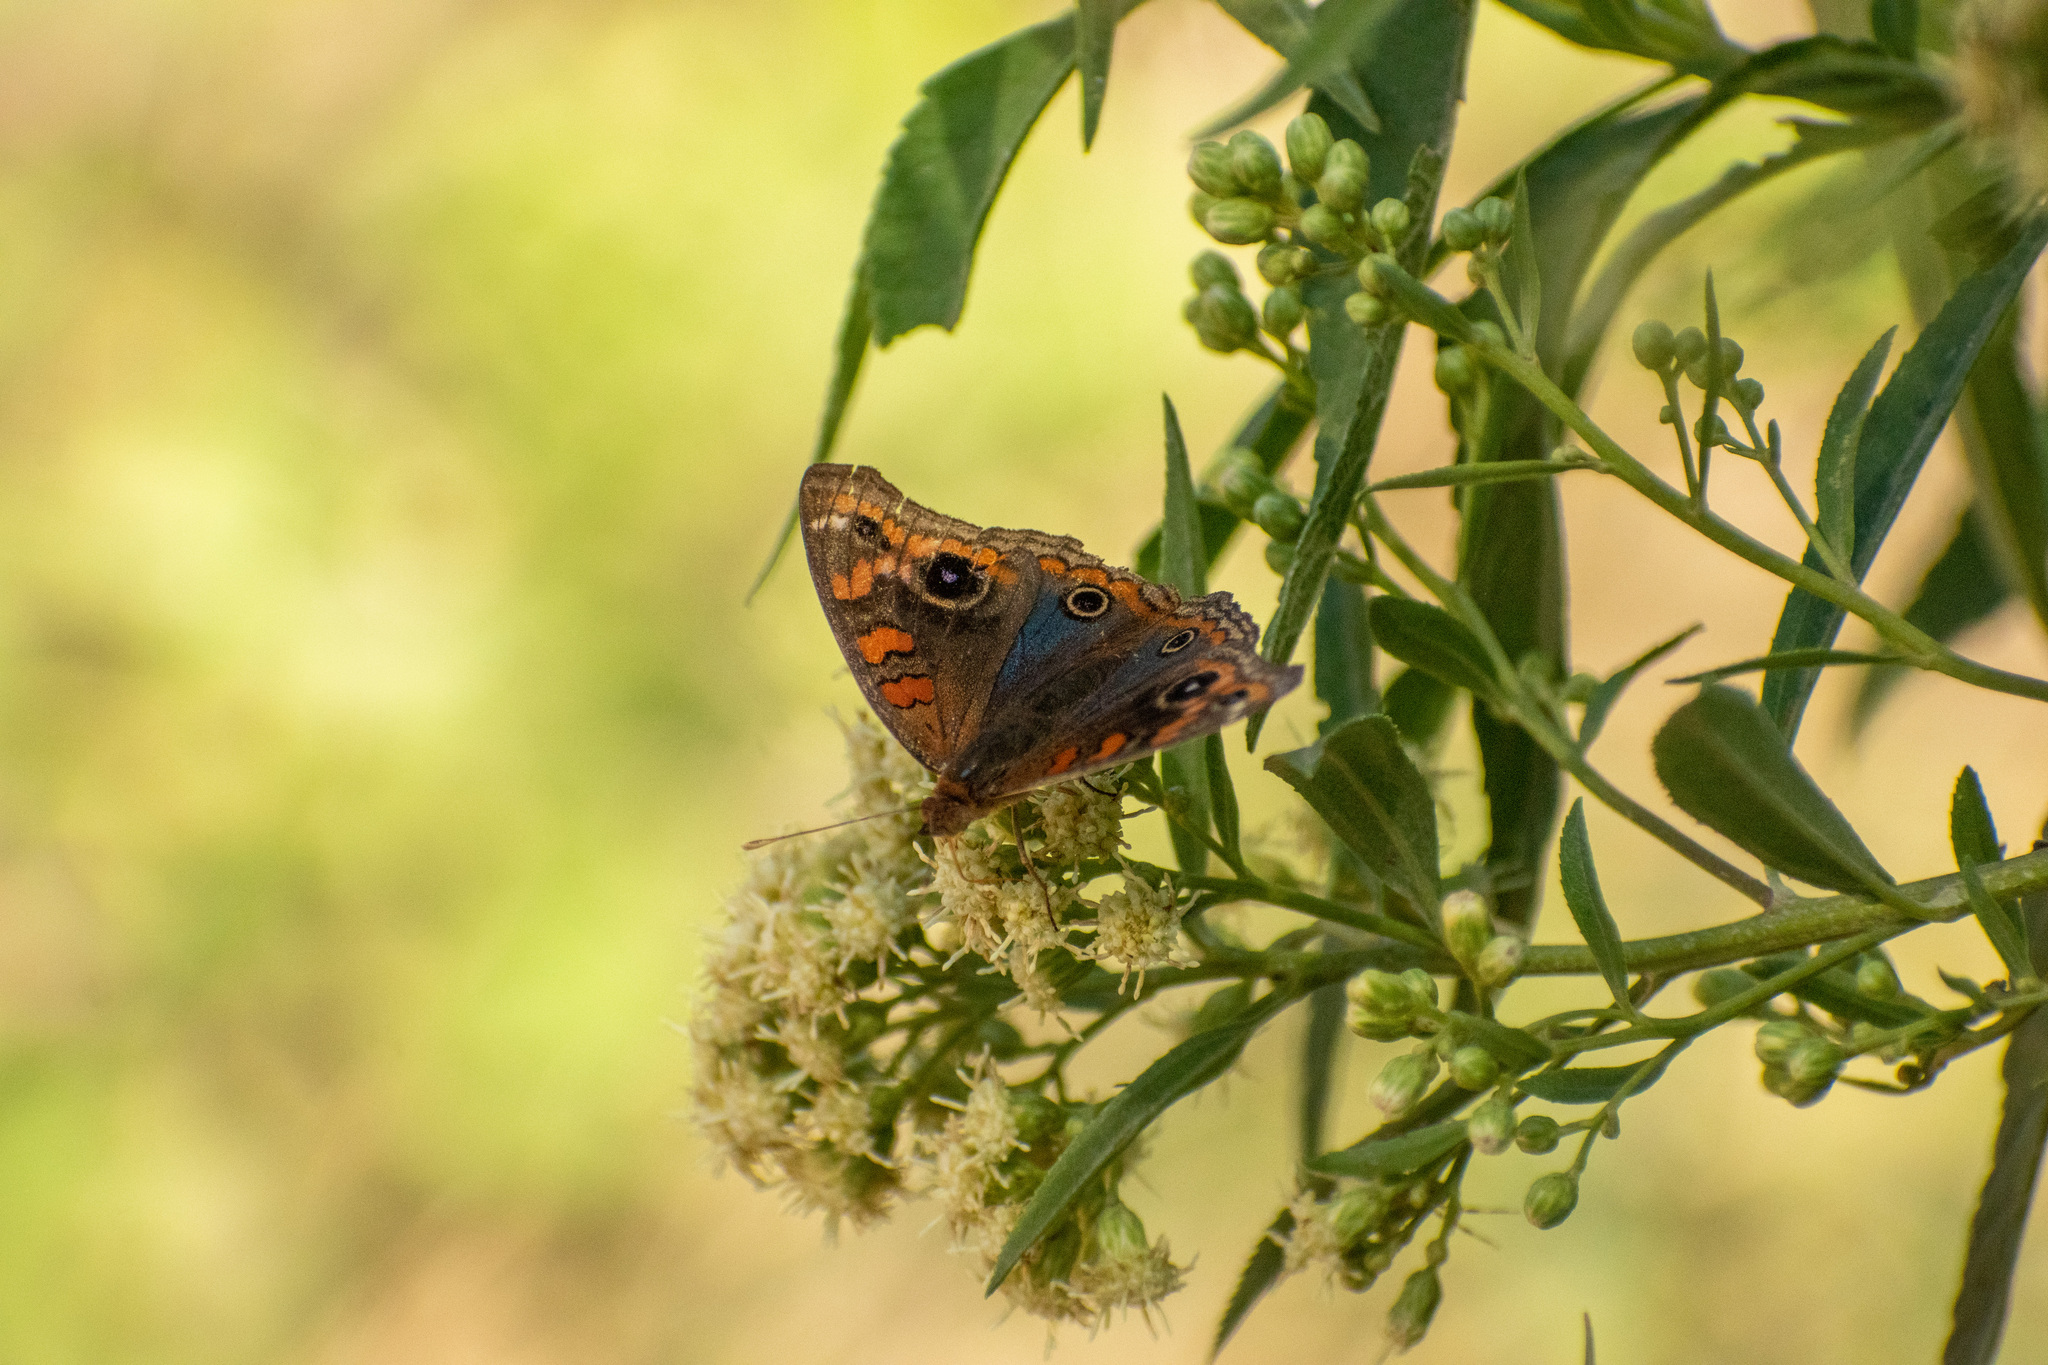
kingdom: Animalia
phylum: Arthropoda
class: Insecta
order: Lepidoptera
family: Nymphalidae
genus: Junonia
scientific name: Junonia lavinia
